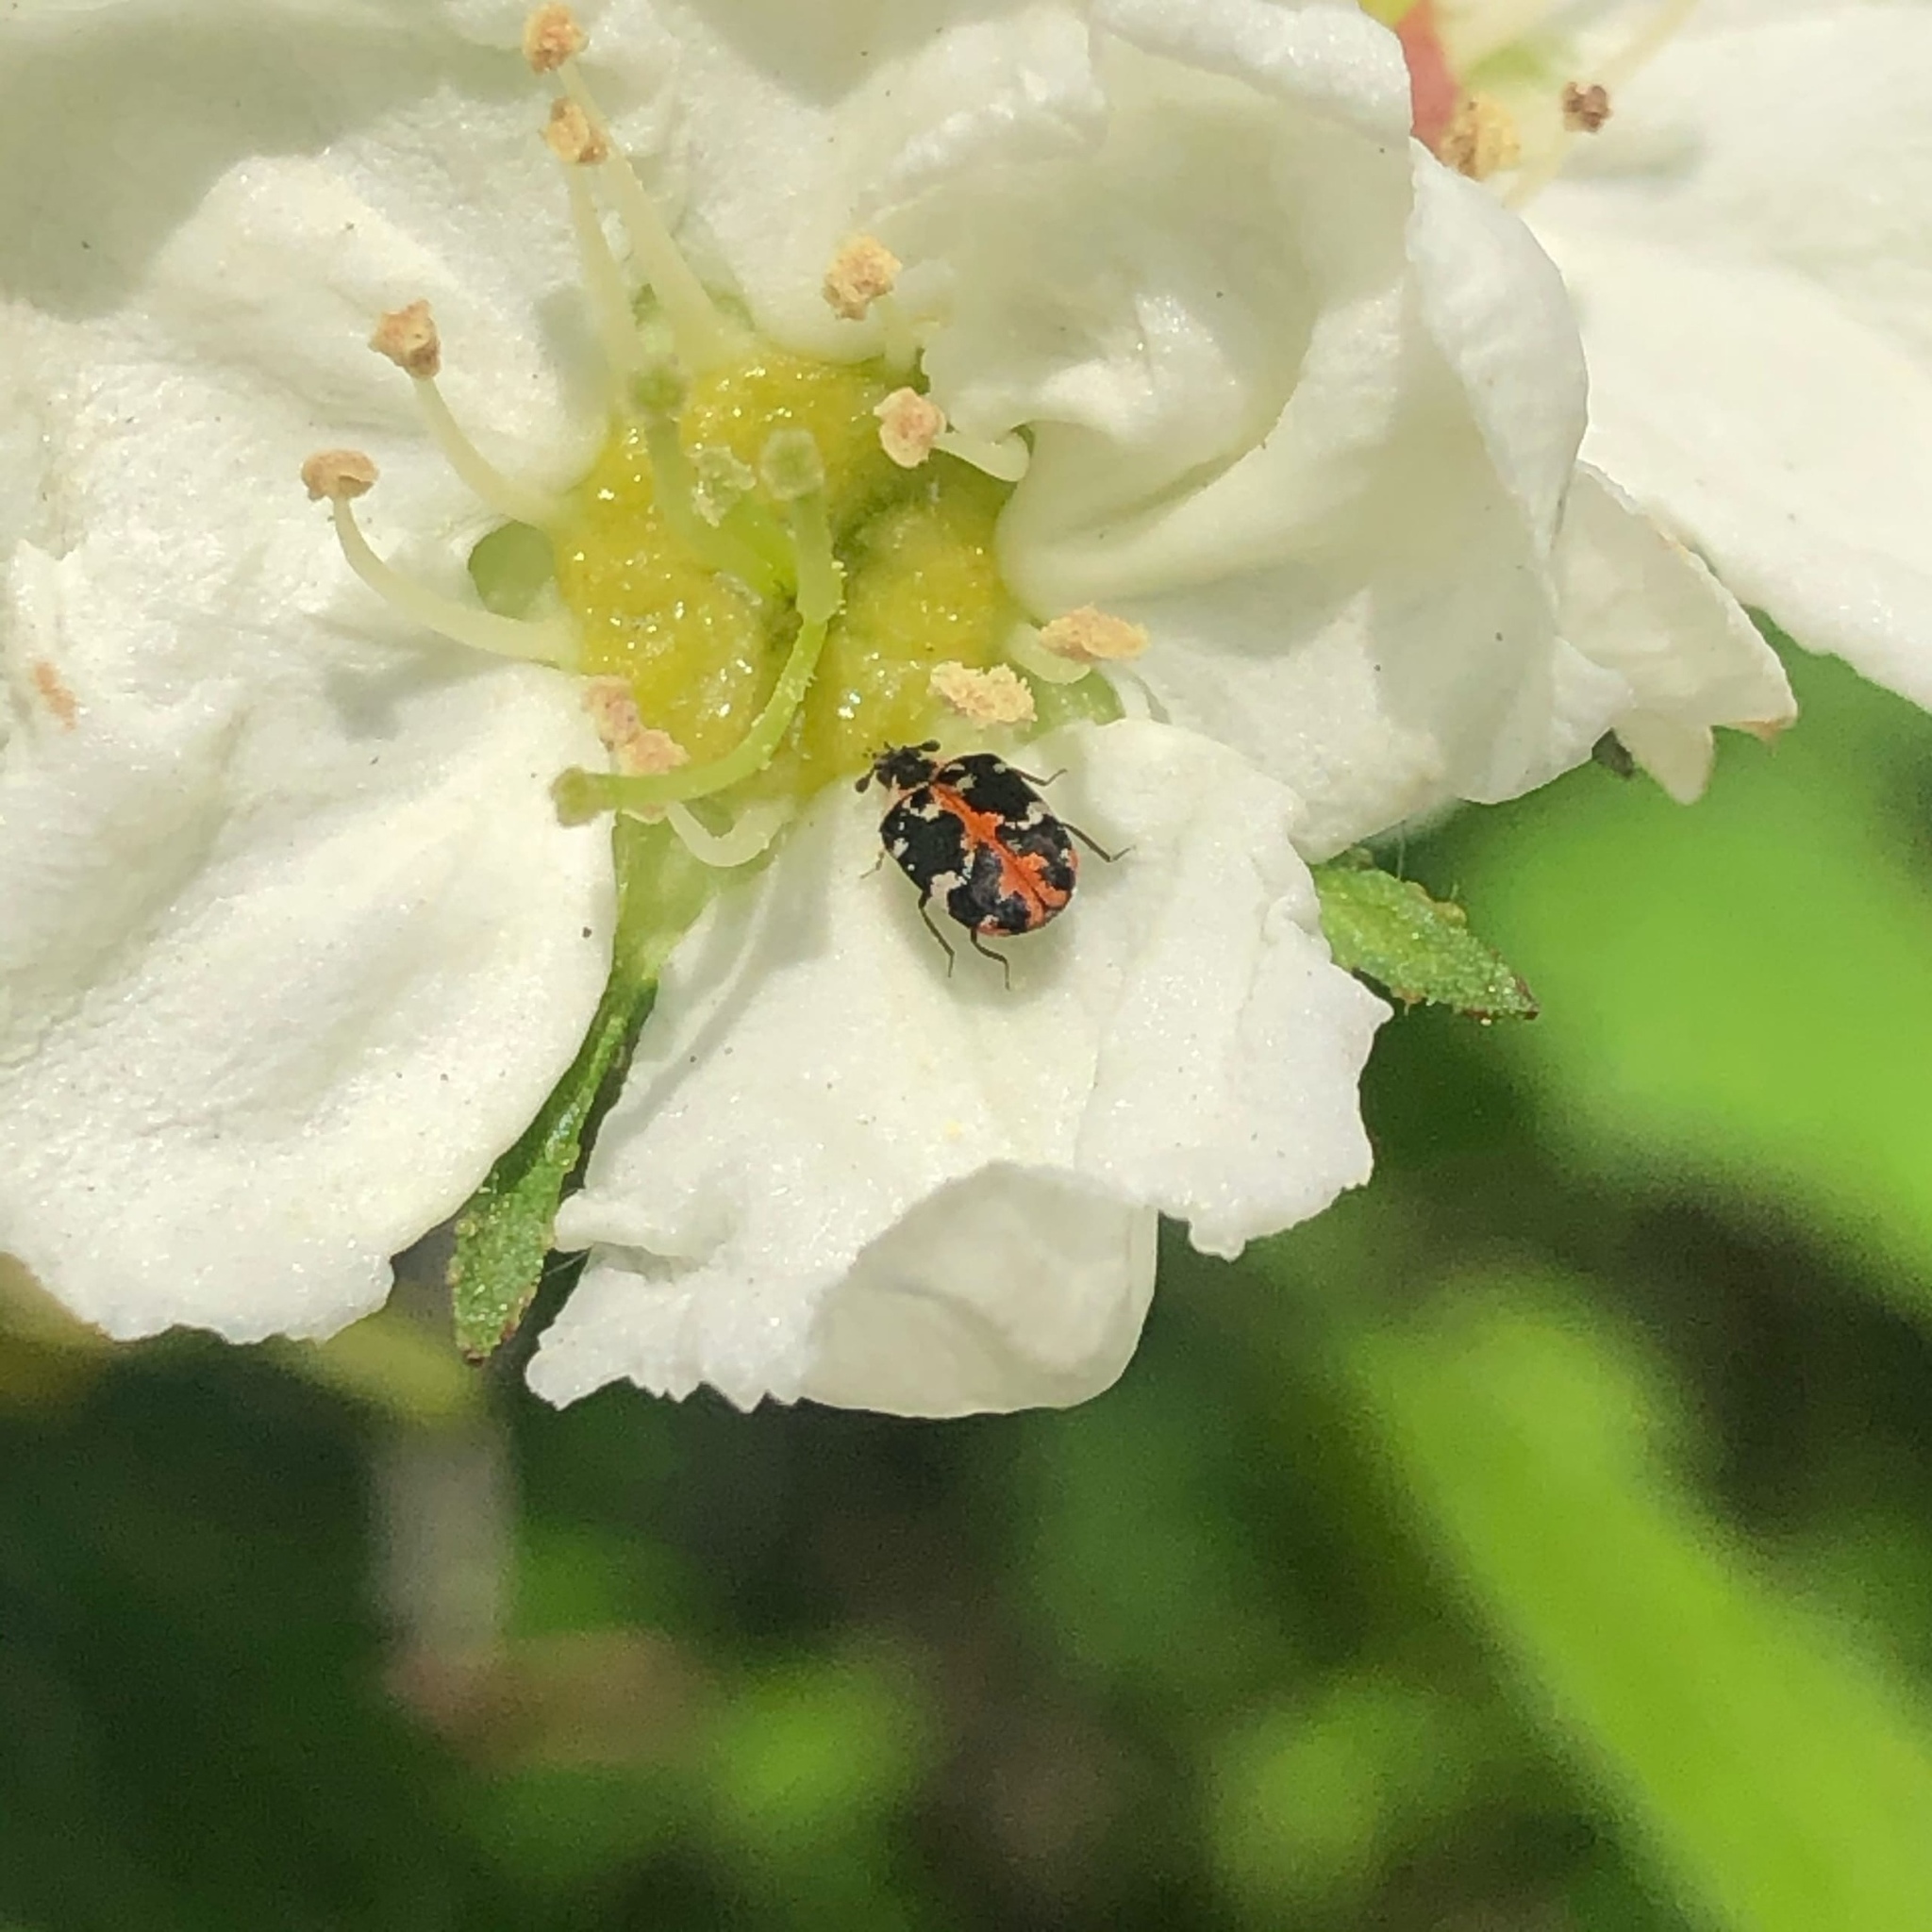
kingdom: Animalia
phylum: Arthropoda
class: Insecta
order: Coleoptera
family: Dermestidae
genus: Anthrenus
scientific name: Anthrenus scrophulariae
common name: Buffalo carpet beetle
